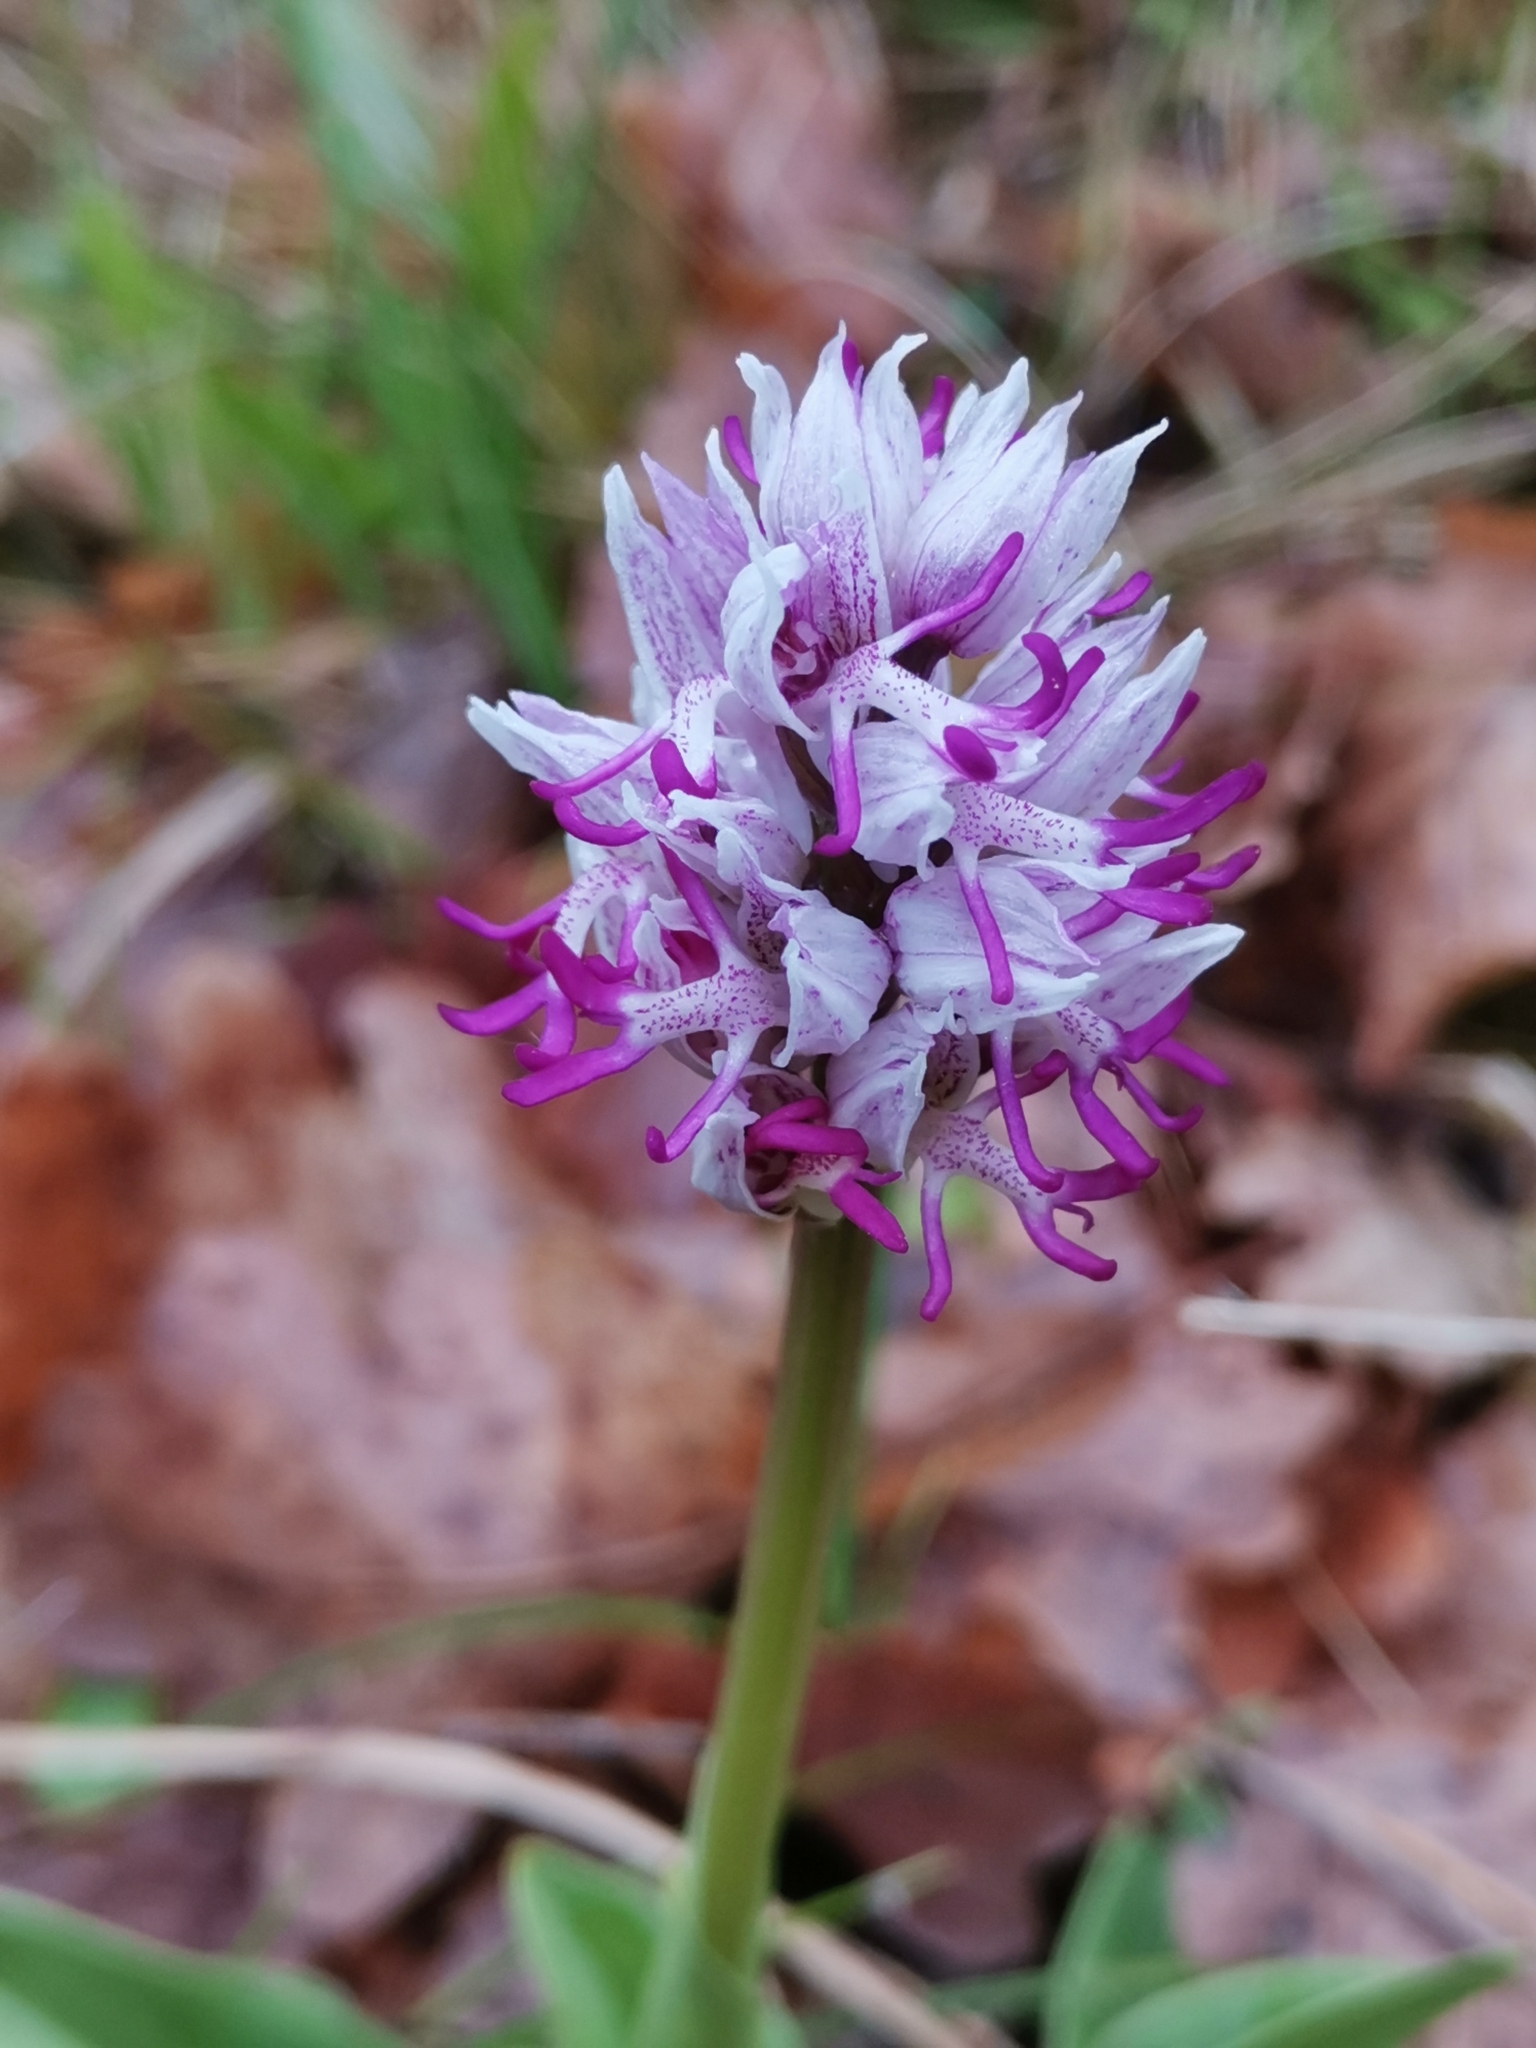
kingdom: Plantae
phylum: Tracheophyta
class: Liliopsida
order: Asparagales
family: Orchidaceae
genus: Orchis
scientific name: Orchis simia
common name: Monkey orchid
